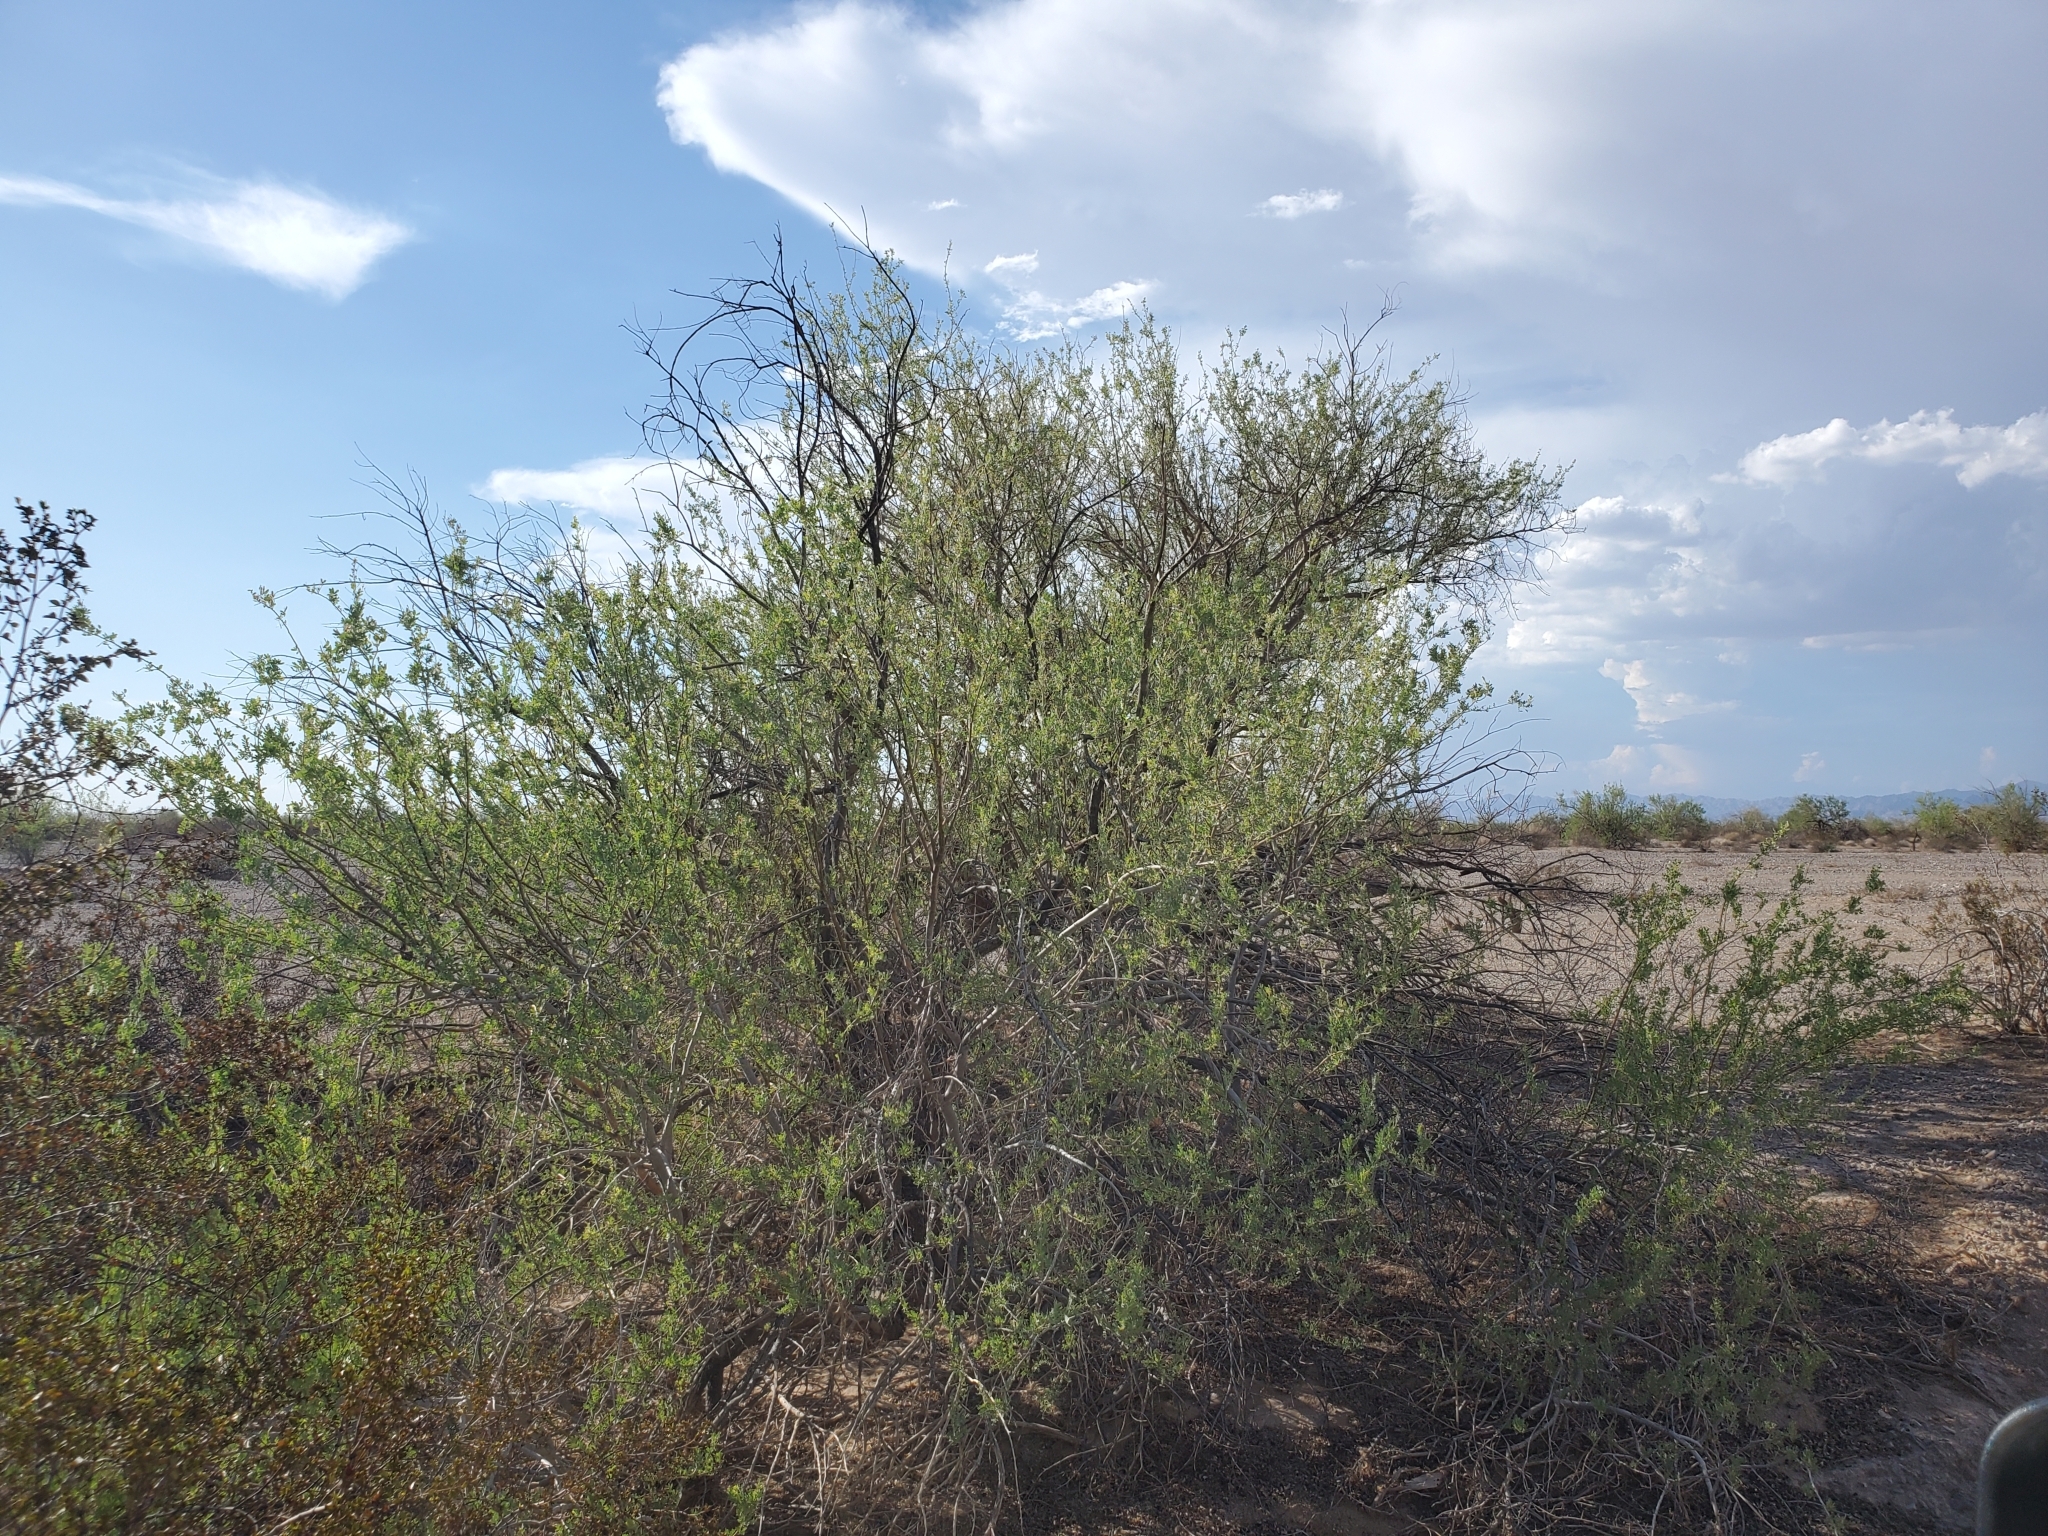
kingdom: Plantae
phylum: Tracheophyta
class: Magnoliopsida
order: Fabales
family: Fabaceae
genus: Olneya
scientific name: Olneya tesota
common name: Desert ironwood
